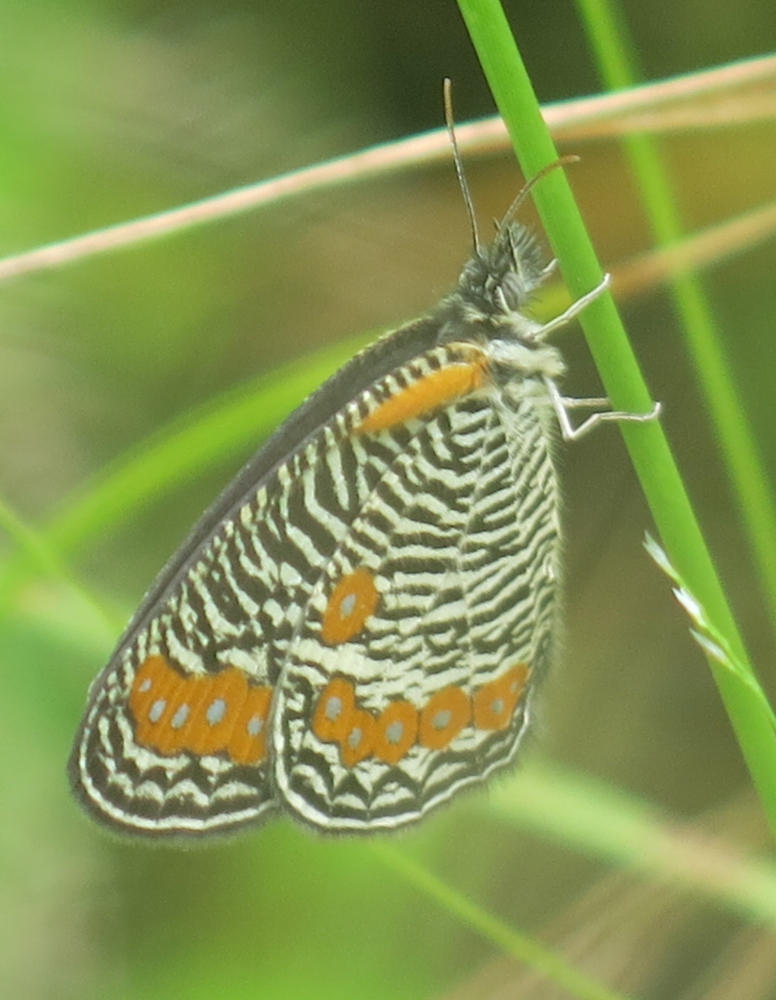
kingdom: Animalia
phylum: Arthropoda
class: Insecta
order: Lepidoptera
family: Nymphalidae
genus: Physcaeneura
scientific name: Physcaeneura panda
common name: Dark-webbed ringlet
